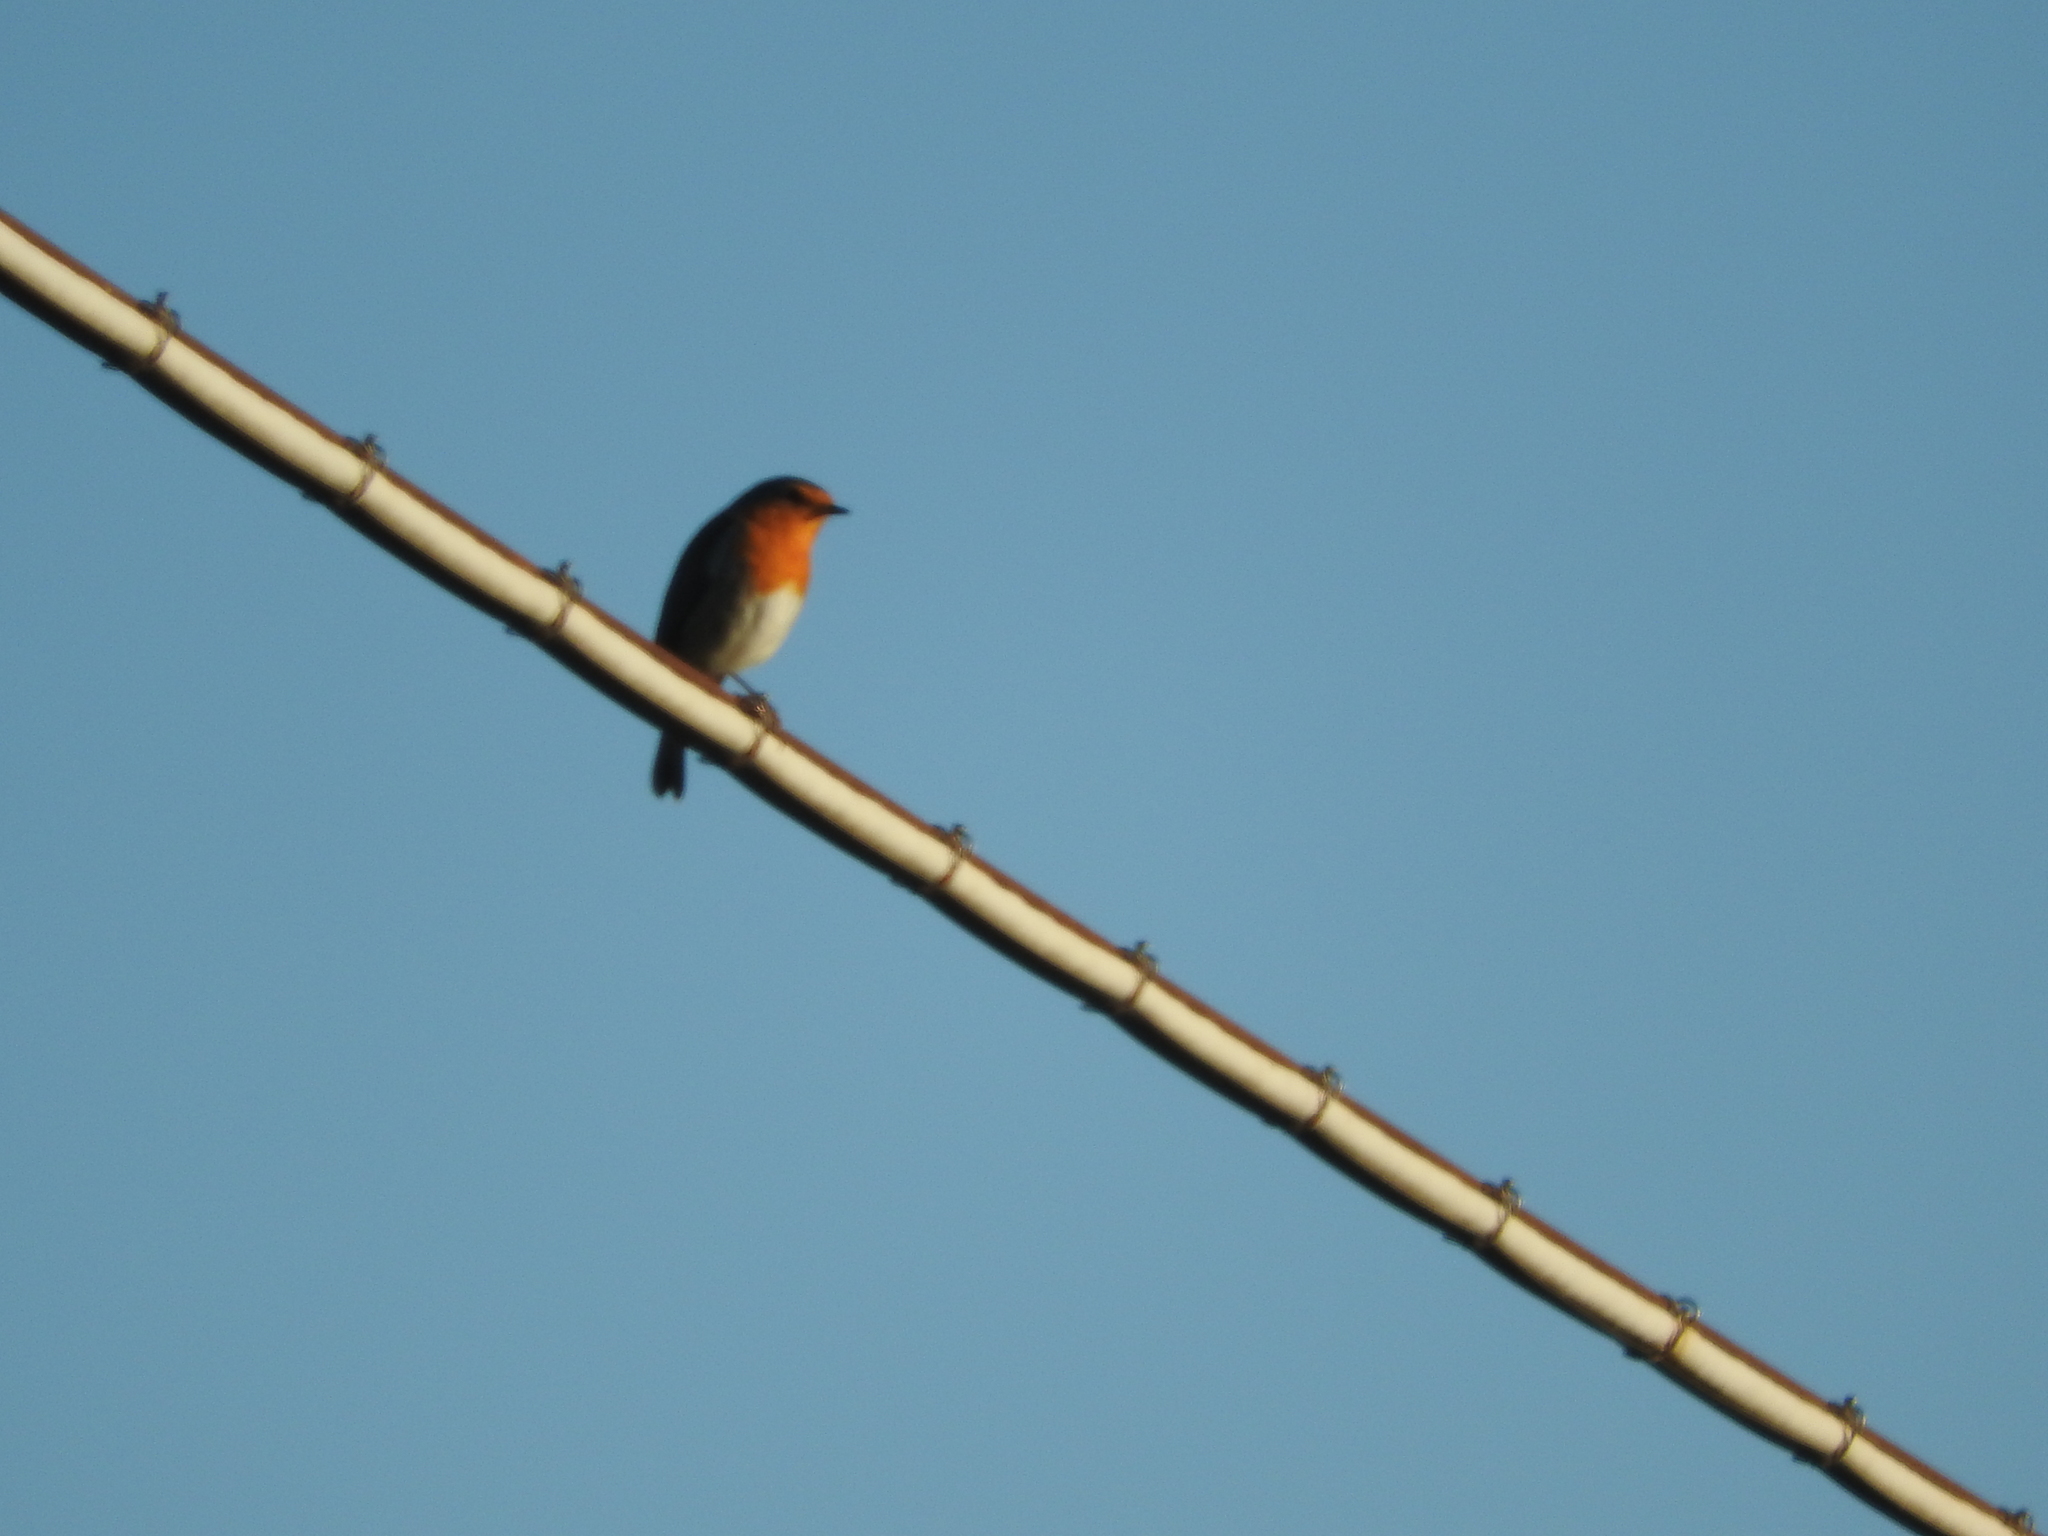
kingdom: Animalia
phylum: Chordata
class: Aves
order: Passeriformes
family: Muscicapidae
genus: Erithacus
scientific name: Erithacus rubecula
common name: European robin
